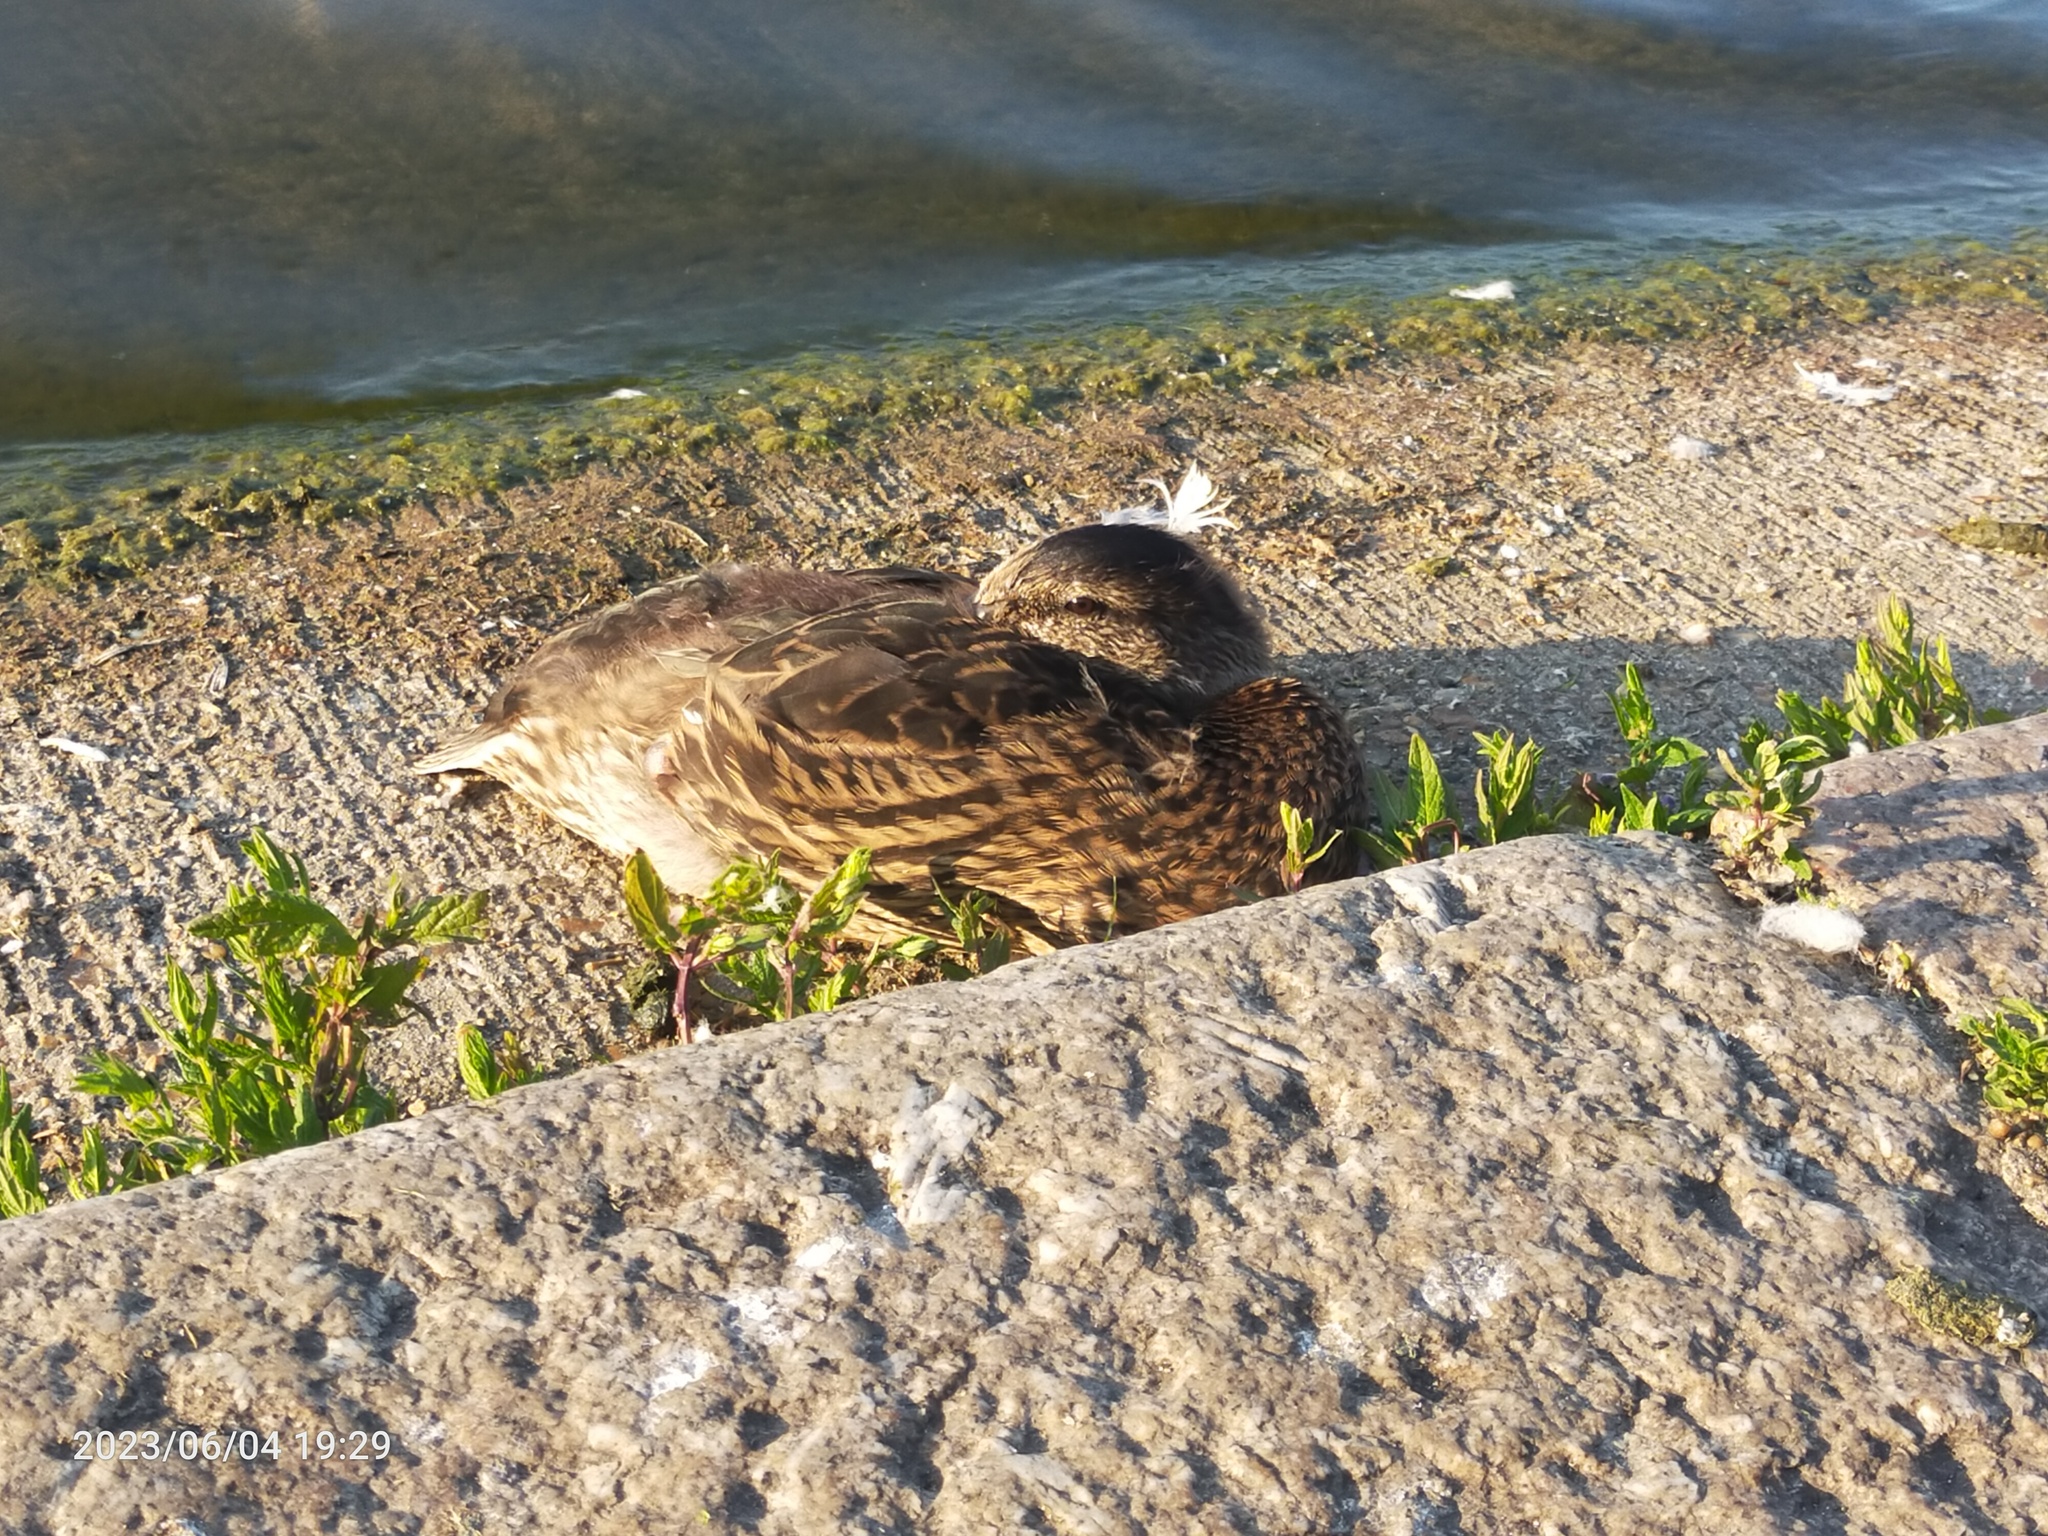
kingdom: Animalia
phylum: Chordata
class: Aves
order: Anseriformes
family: Anatidae
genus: Anas
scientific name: Anas platyrhynchos
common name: Mallard
